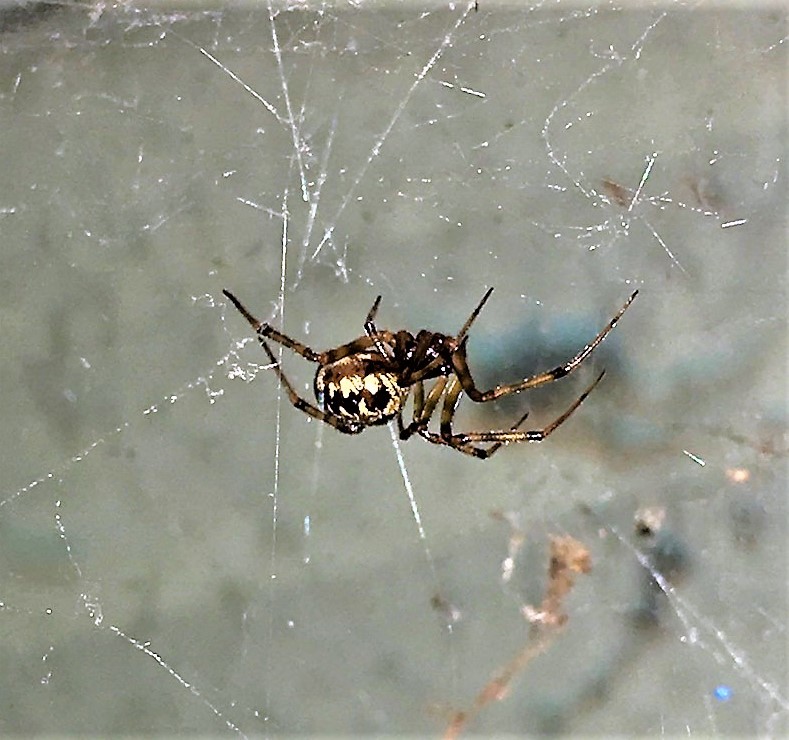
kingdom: Animalia
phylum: Arthropoda
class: Arachnida
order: Araneae
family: Theridiidae
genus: Steatoda
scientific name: Steatoda triangulosa
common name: Triangulate bud spider
